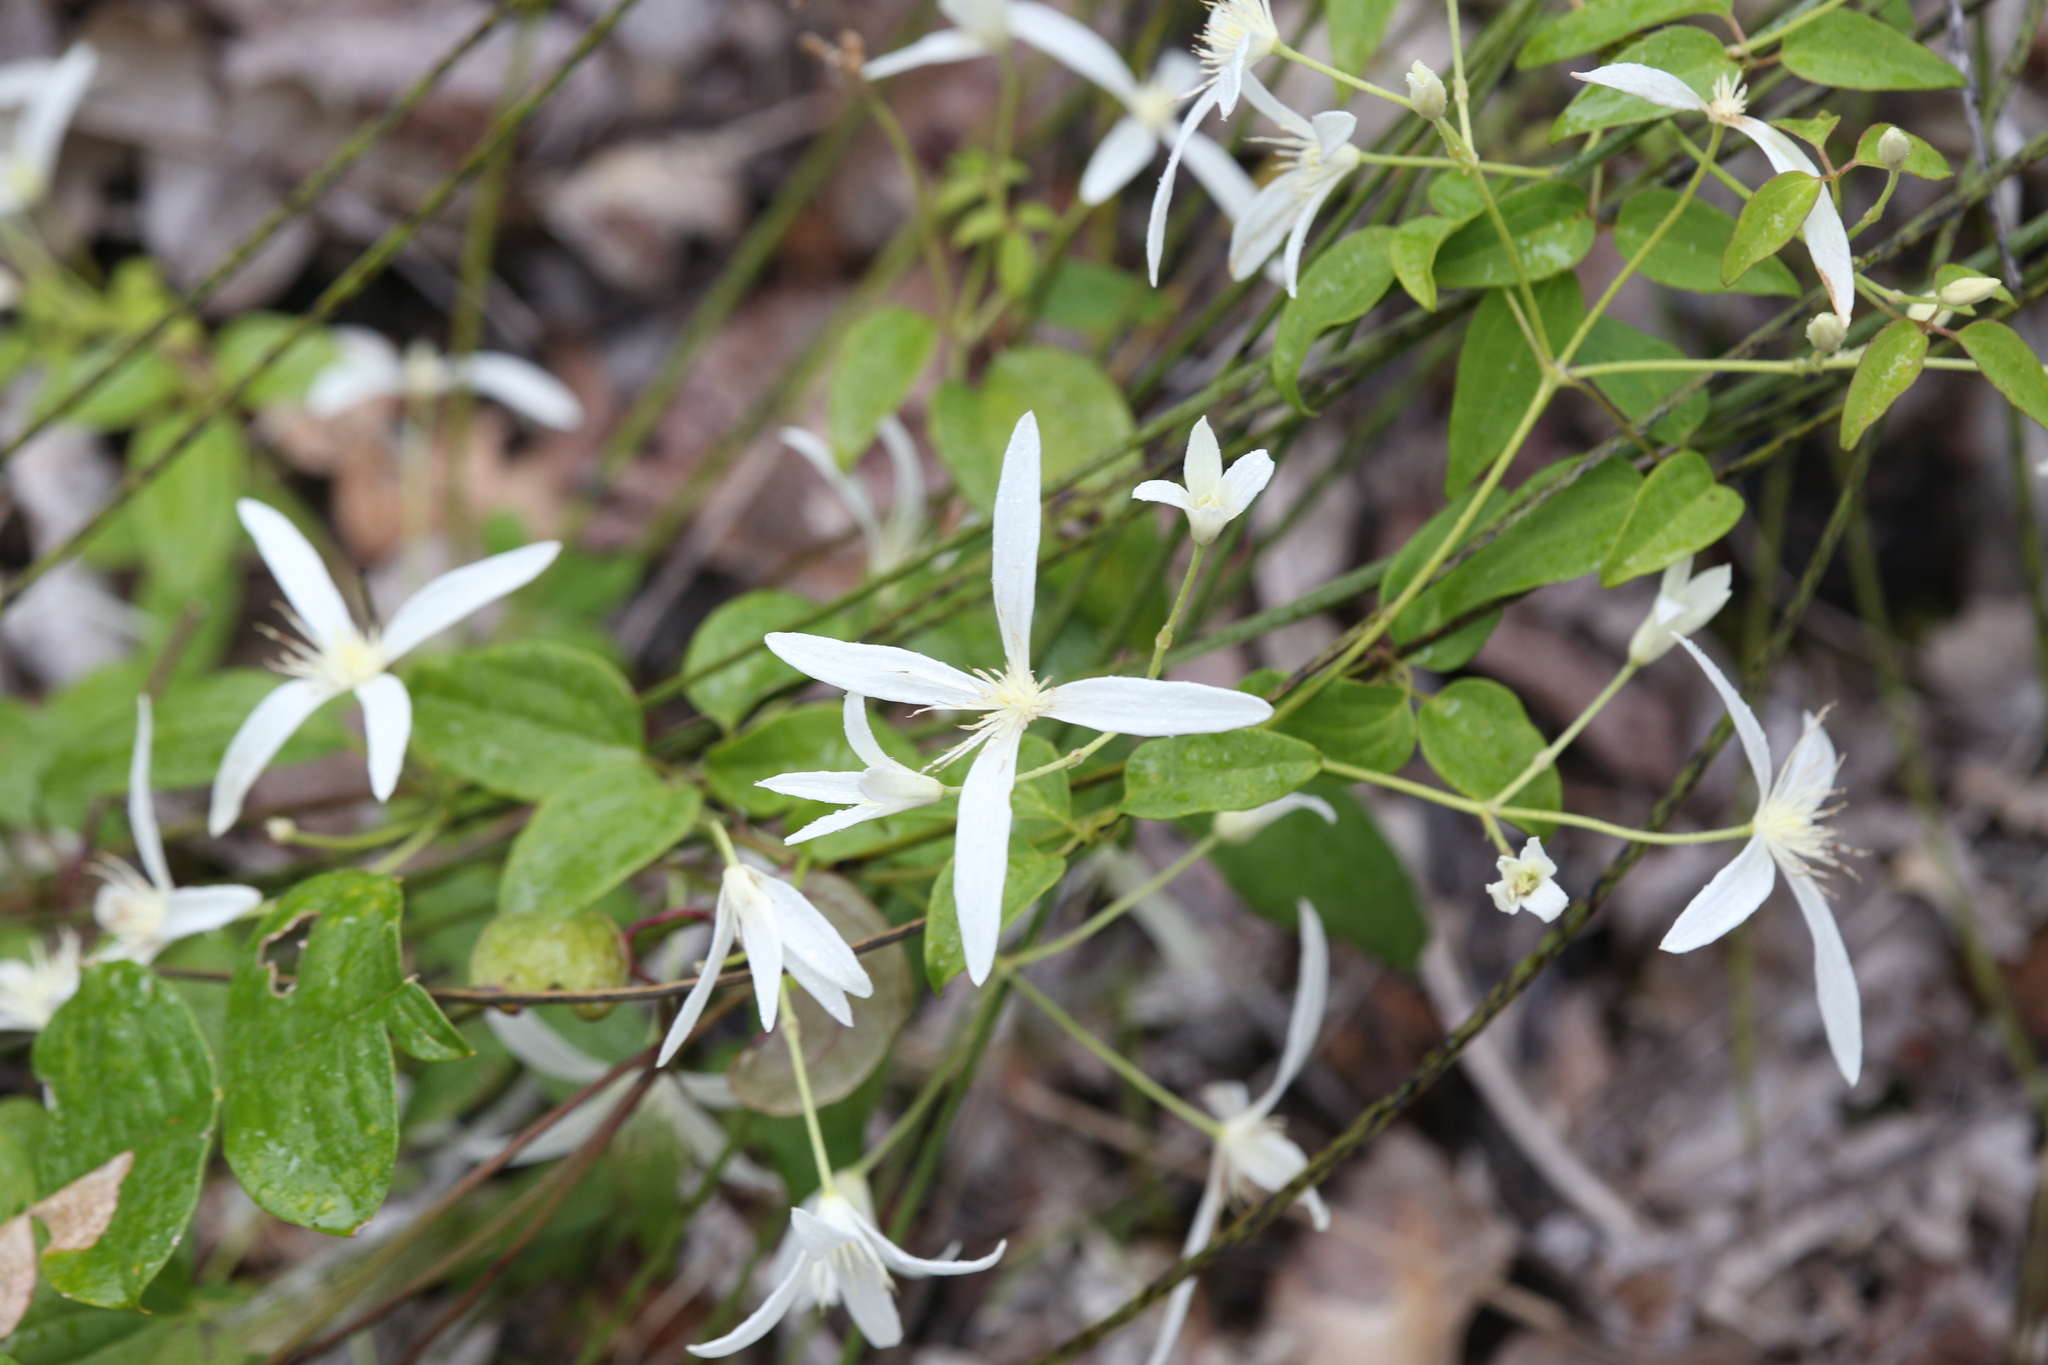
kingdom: Plantae
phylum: Tracheophyta
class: Magnoliopsida
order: Ranunculales
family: Ranunculaceae
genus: Clematis
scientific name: Clematis pubescens
